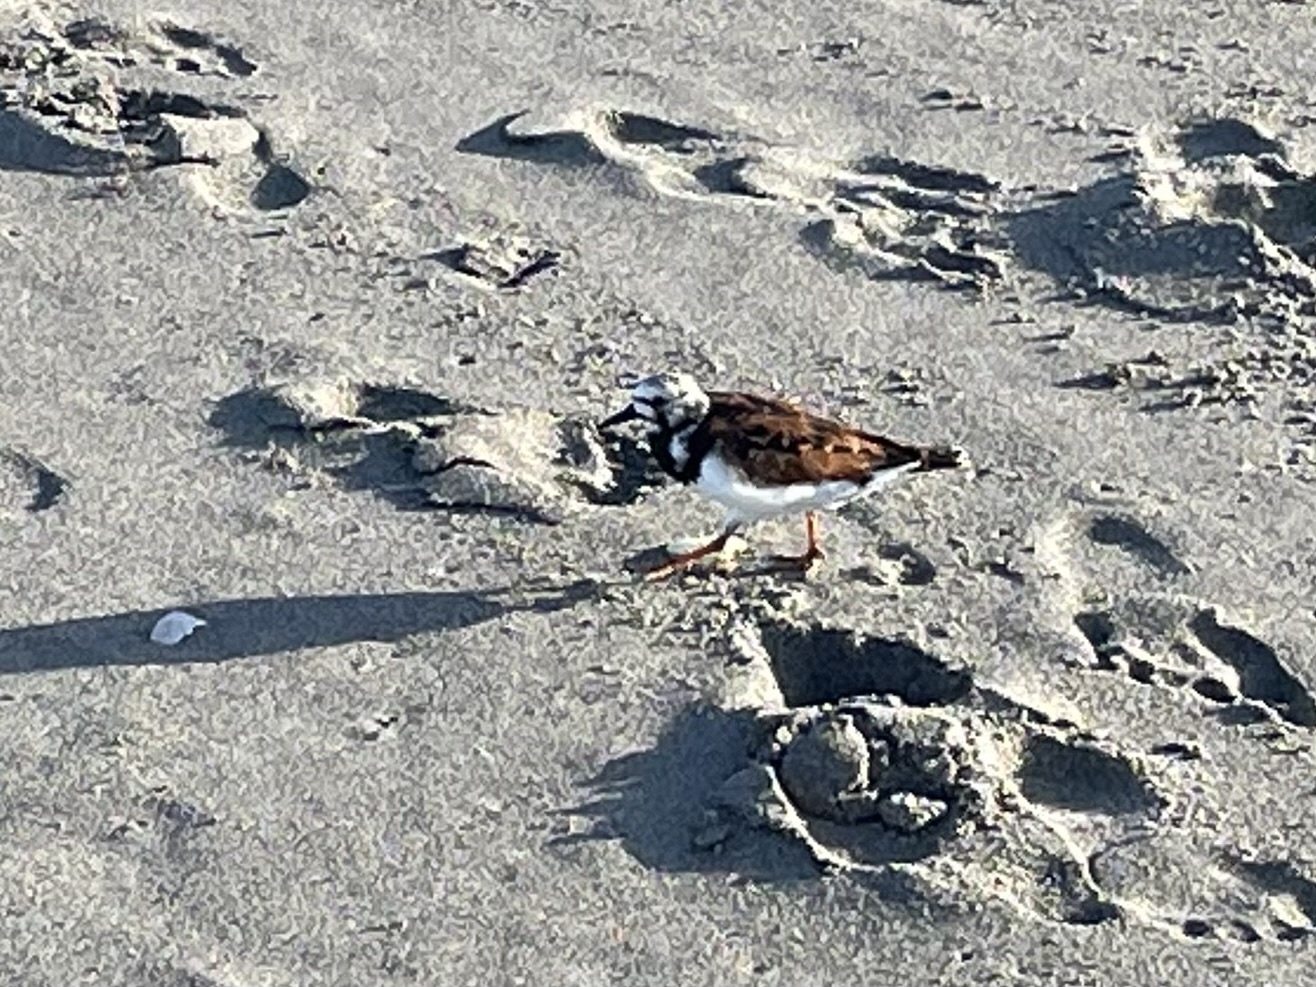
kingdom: Animalia
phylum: Chordata
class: Aves
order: Charadriiformes
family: Scolopacidae
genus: Arenaria
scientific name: Arenaria interpres
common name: Ruddy turnstone
